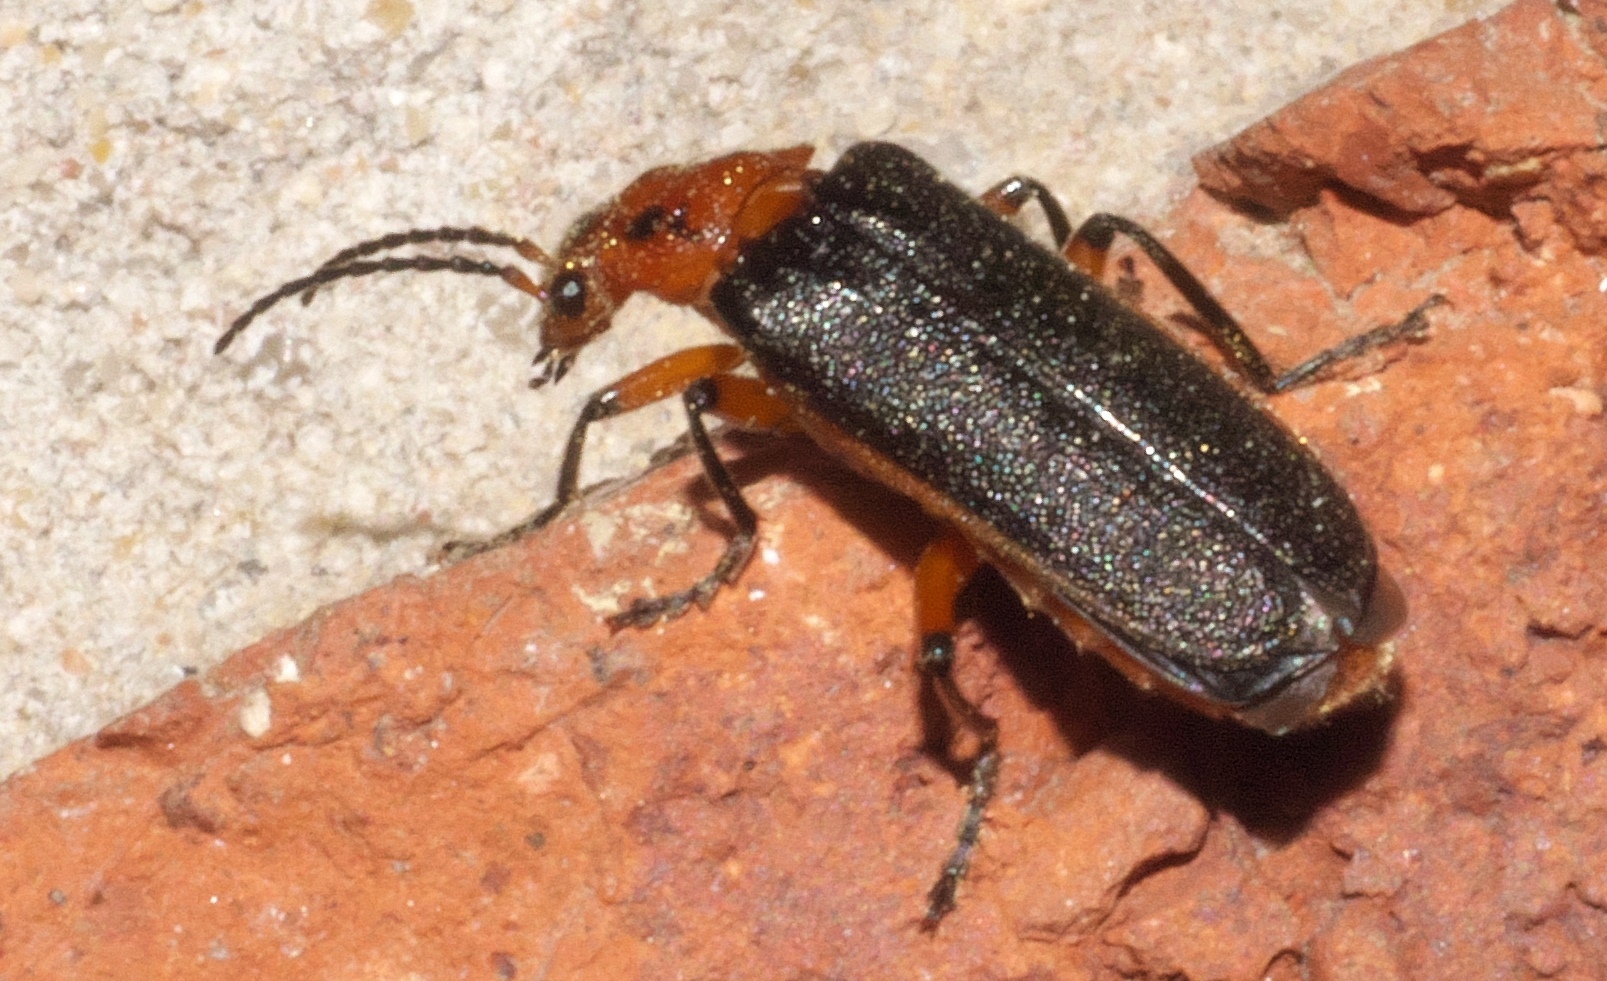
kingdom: Animalia
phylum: Arthropoda
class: Insecta
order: Coleoptera
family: Cantharidae
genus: Atalantycha
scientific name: Atalantycha bilineata
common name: Two-lined leatherwing
